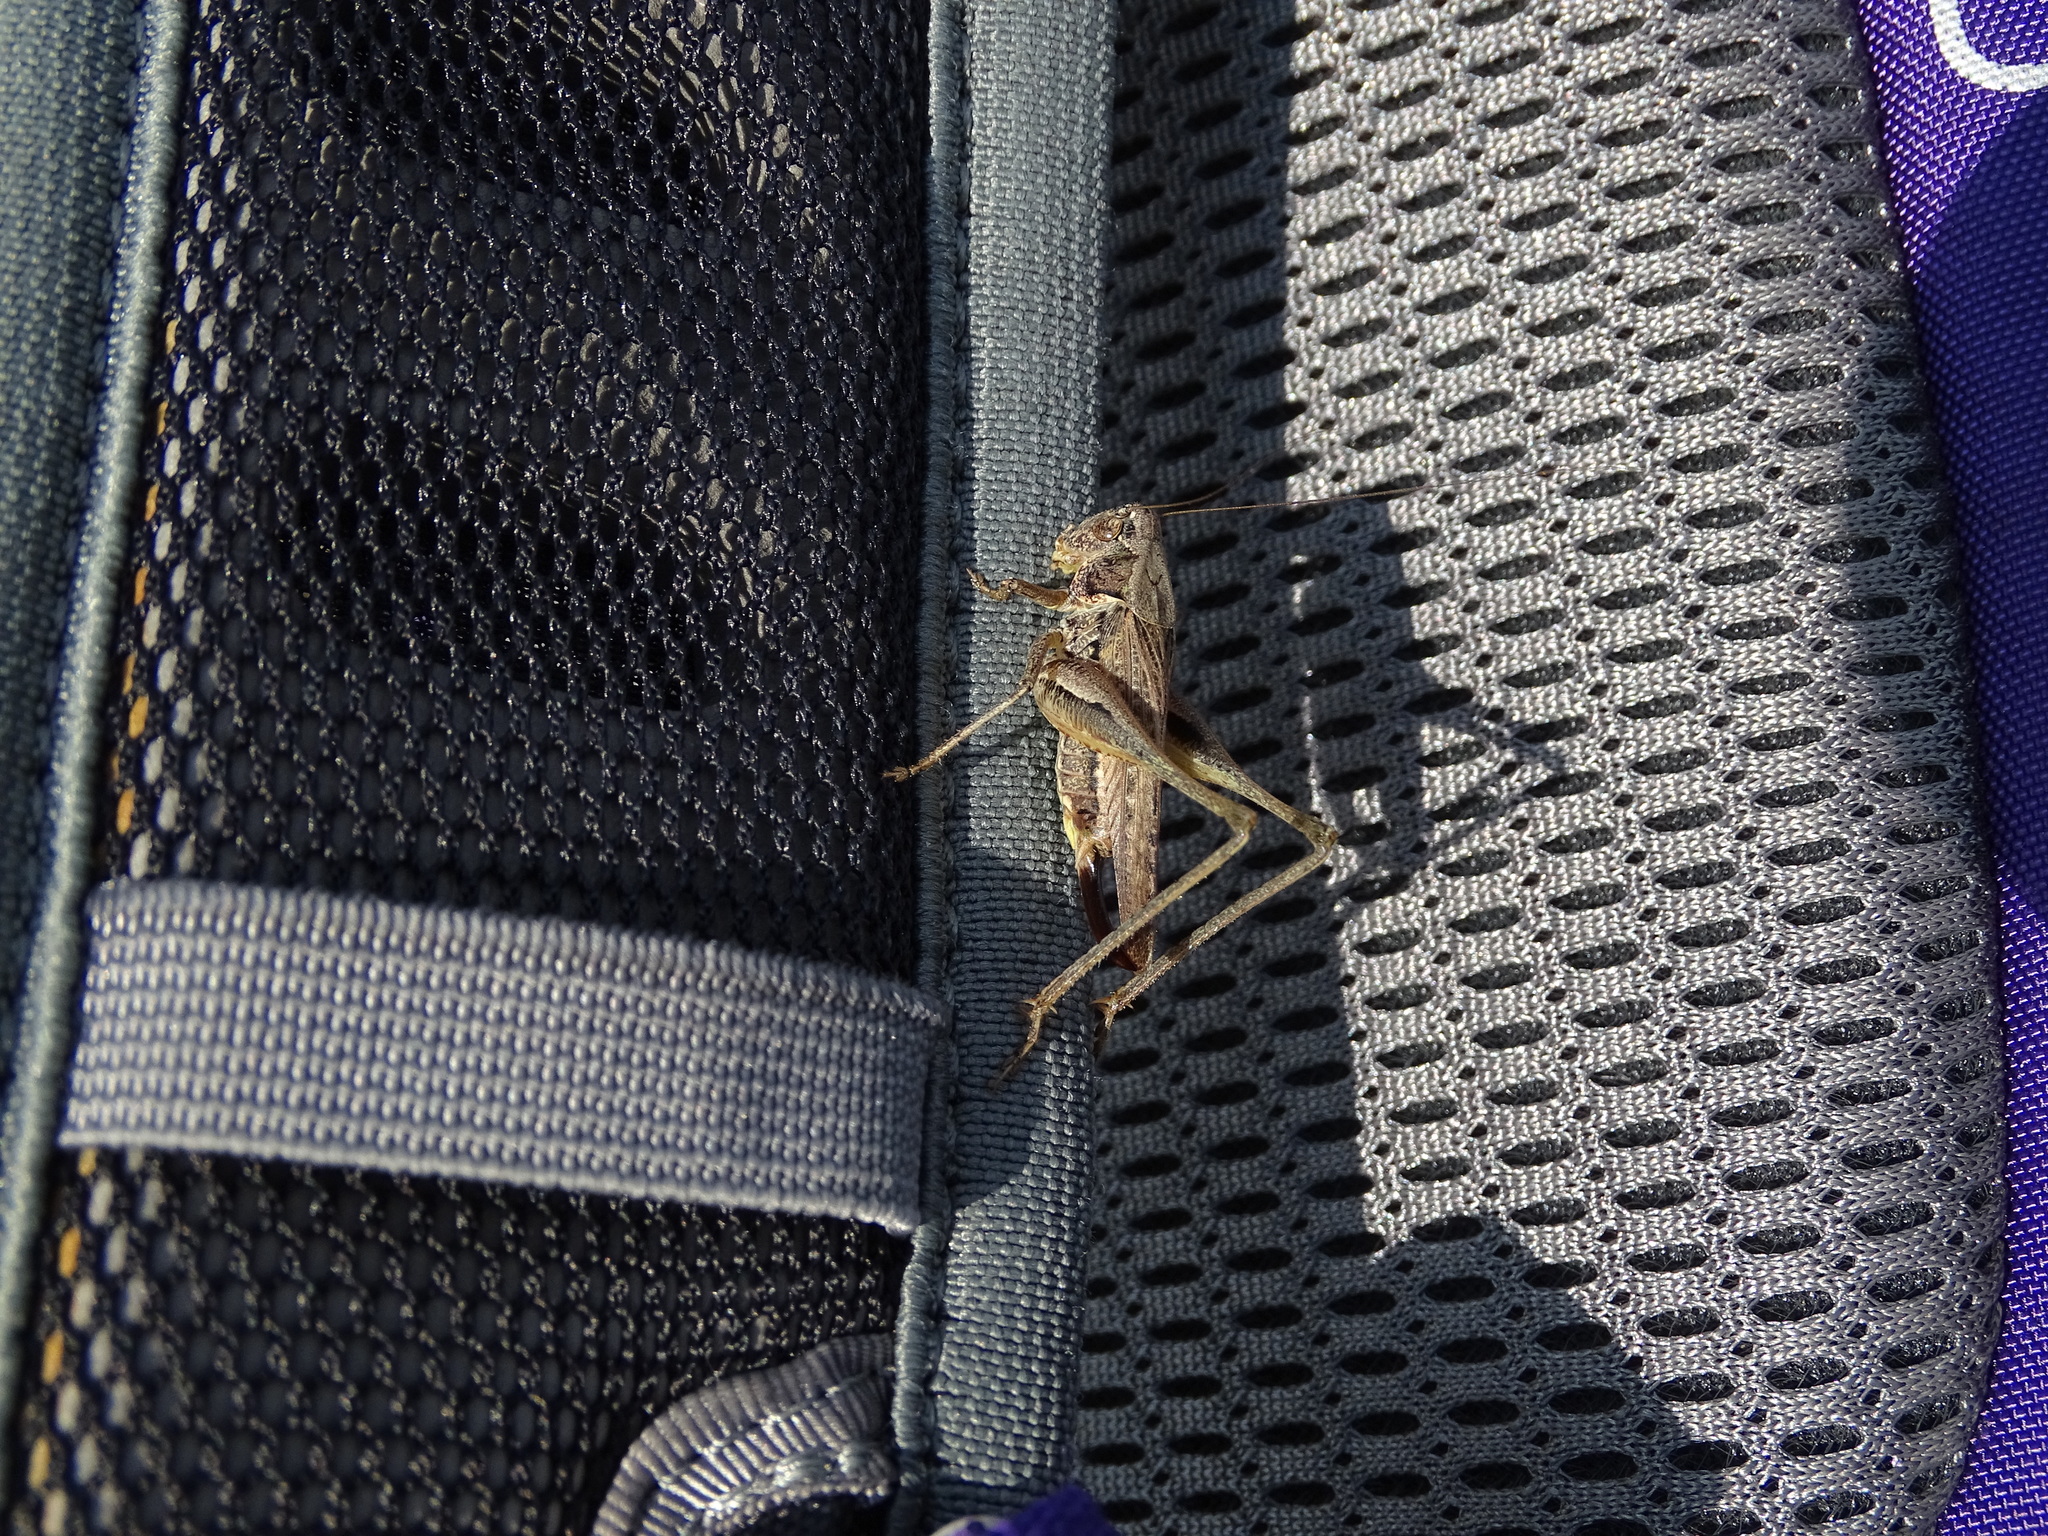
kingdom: Animalia
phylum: Arthropoda
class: Insecta
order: Orthoptera
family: Tettigoniidae
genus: Platycleis
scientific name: Platycleis albopunctata
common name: Grey bush-cricket
